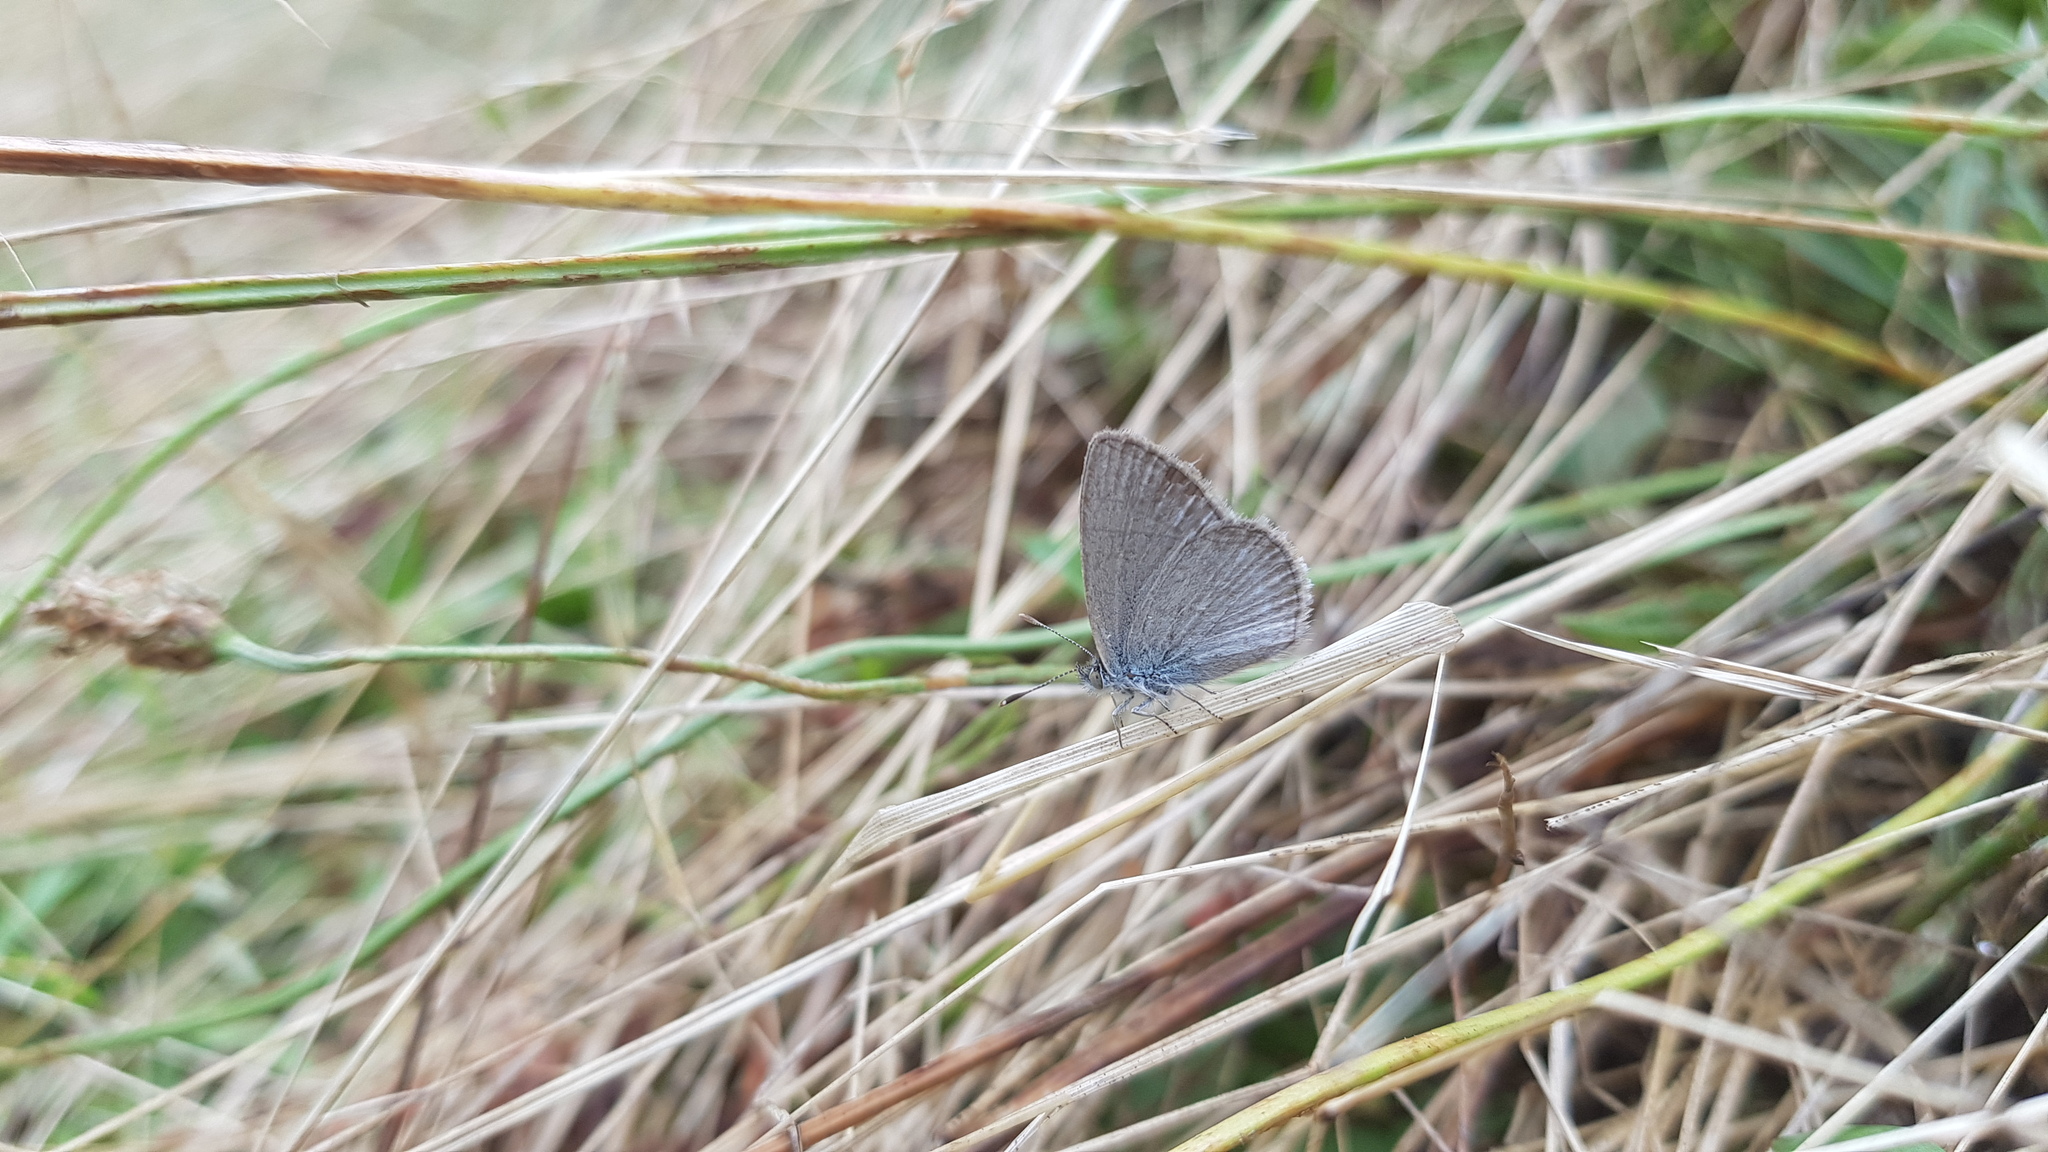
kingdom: Animalia
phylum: Arthropoda
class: Insecta
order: Lepidoptera
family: Lycaenidae
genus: Zizina
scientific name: Zizina labradus
